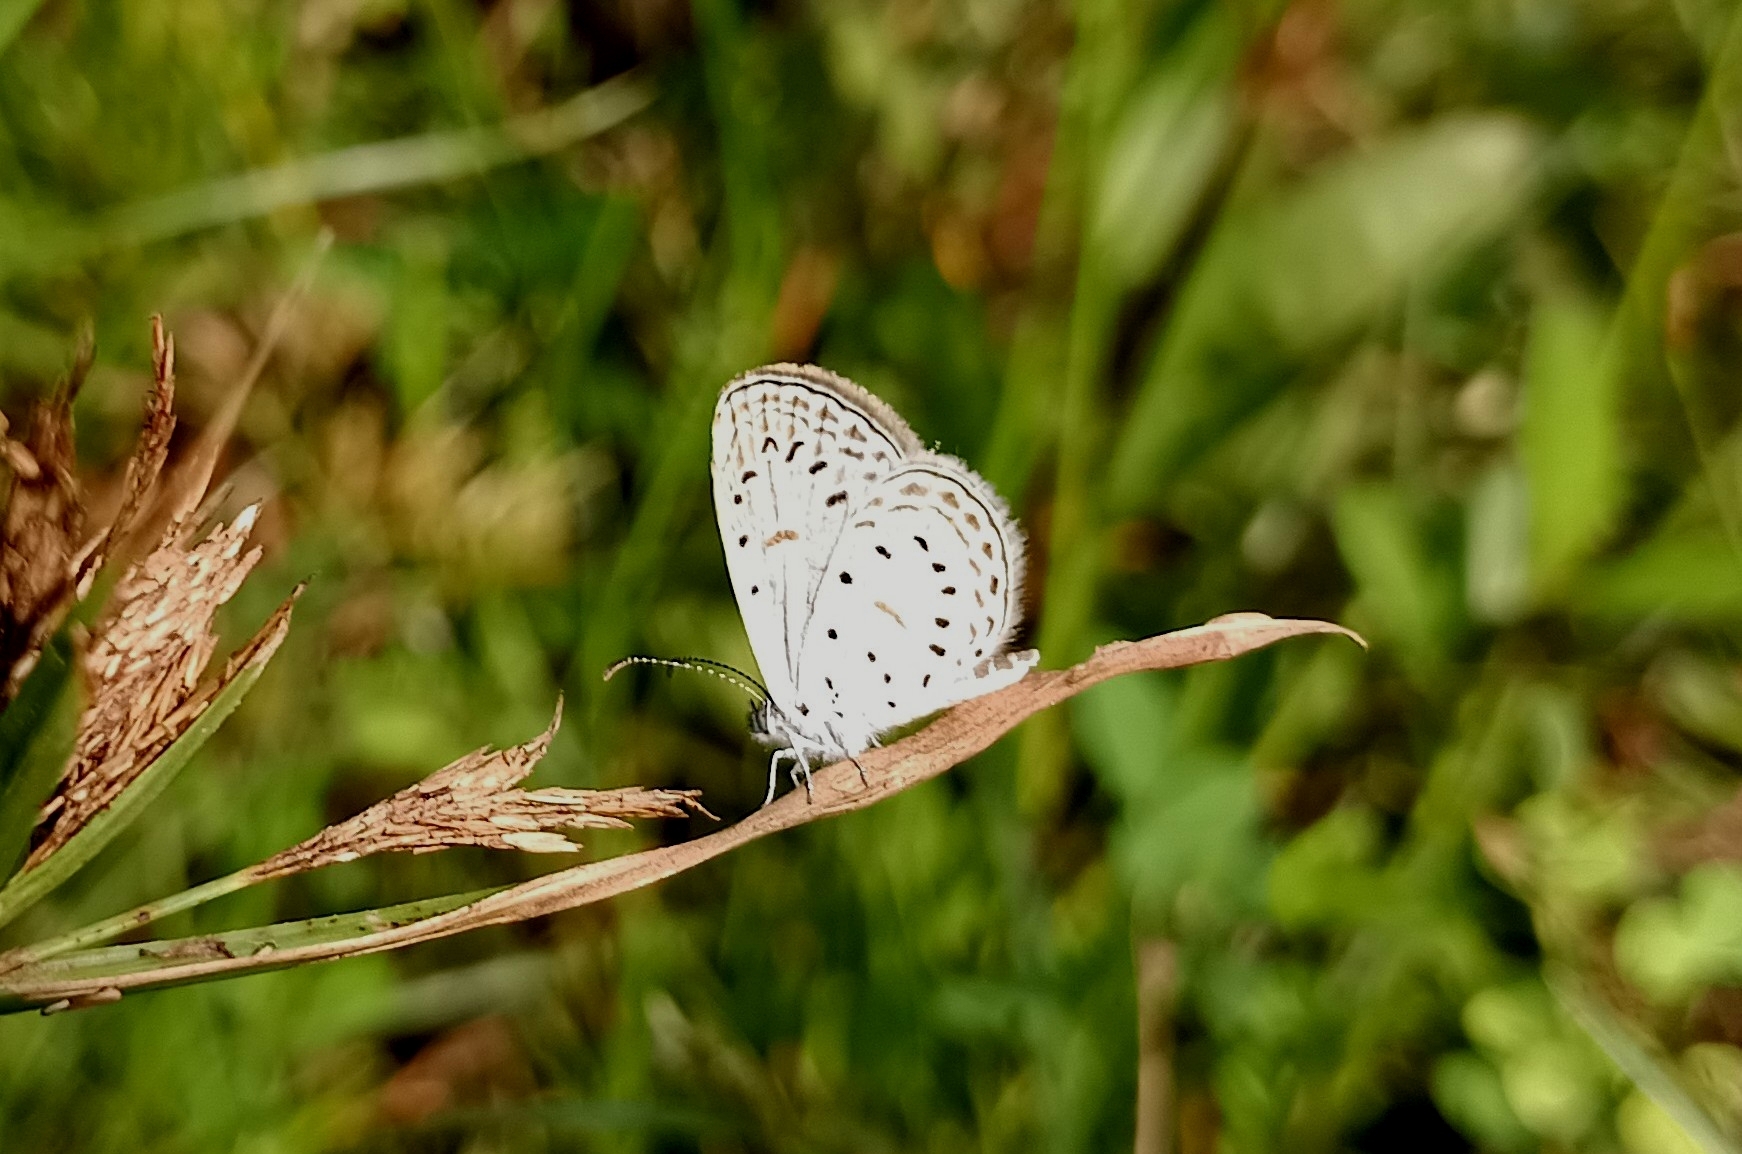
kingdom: Animalia
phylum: Arthropoda
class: Insecta
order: Lepidoptera
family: Lycaenidae
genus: Zizula
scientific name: Zizula hylax
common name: Gaika blue
